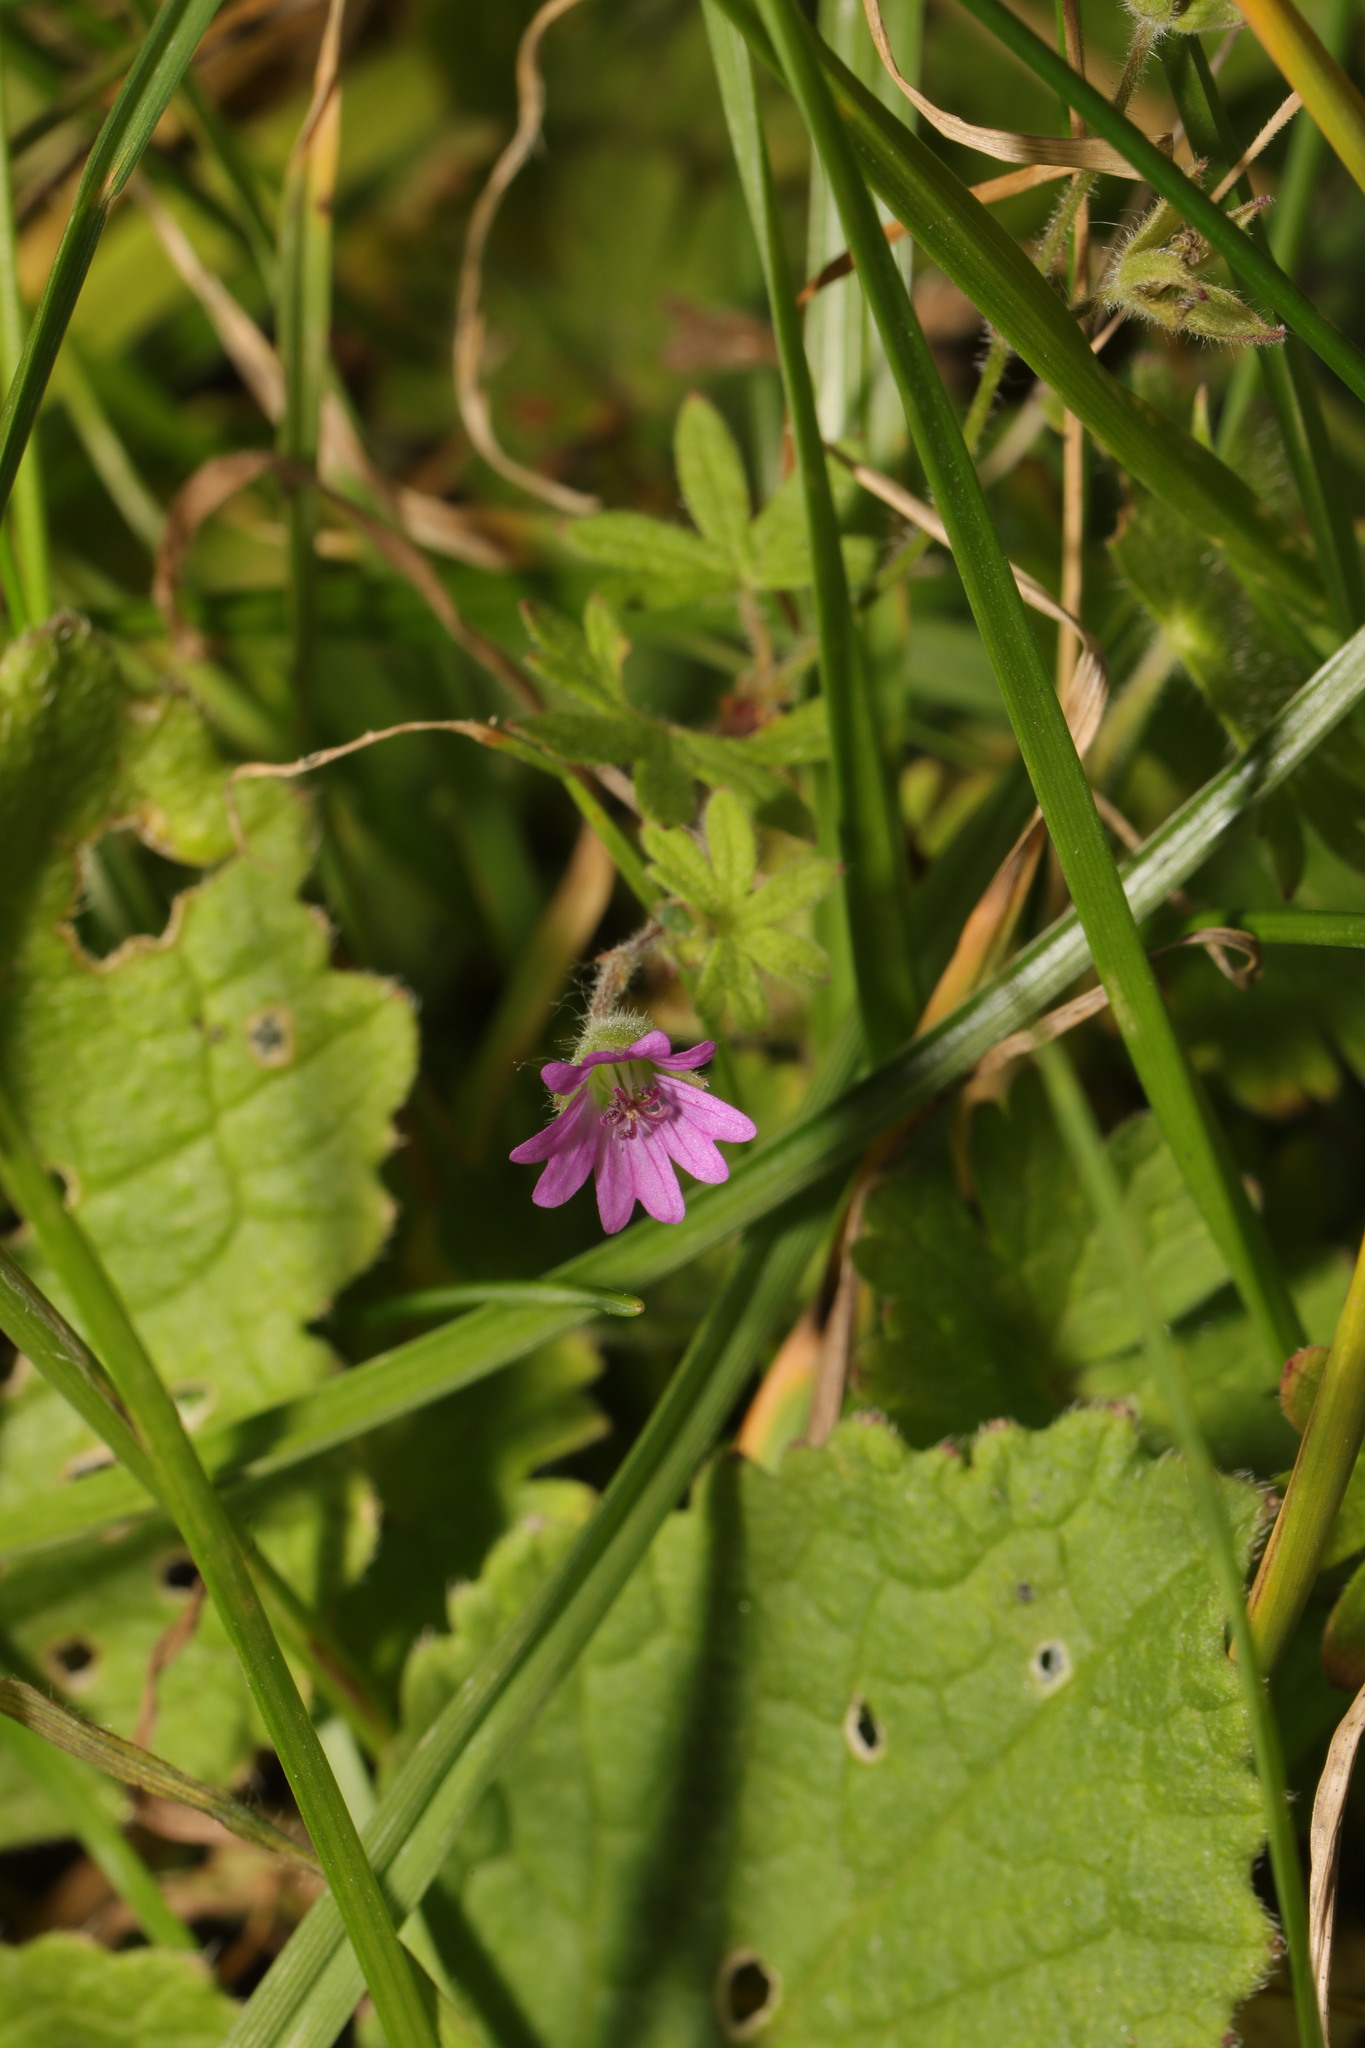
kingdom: Plantae
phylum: Tracheophyta
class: Magnoliopsida
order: Geraniales
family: Geraniaceae
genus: Geranium
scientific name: Geranium molle
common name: Dove's-foot crane's-bill
